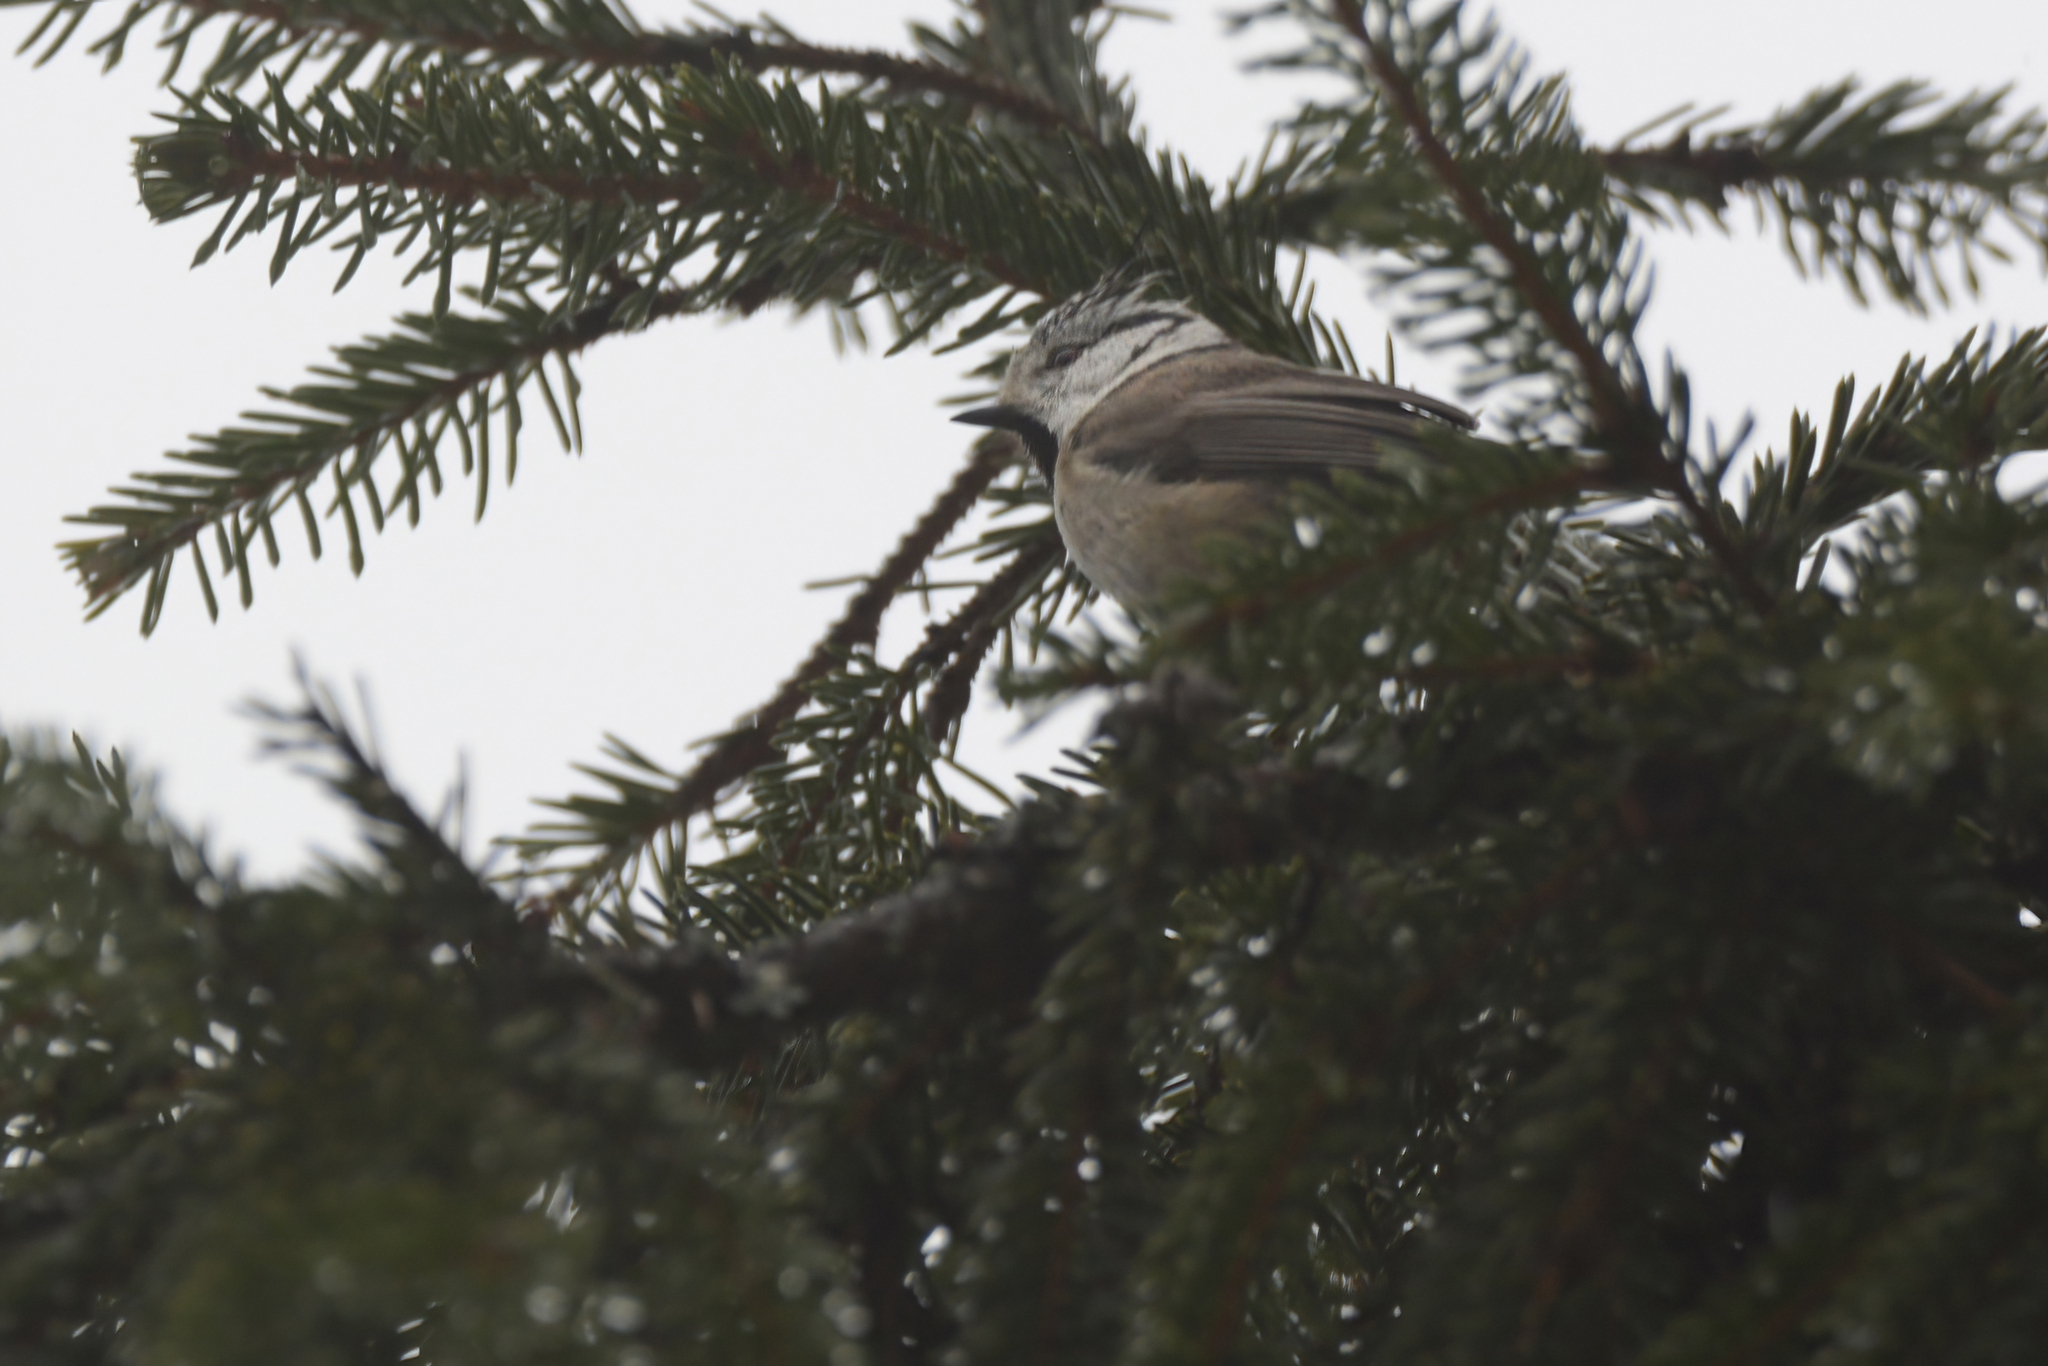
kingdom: Animalia
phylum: Chordata
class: Aves
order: Passeriformes
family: Paridae
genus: Lophophanes
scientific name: Lophophanes cristatus
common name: European crested tit
